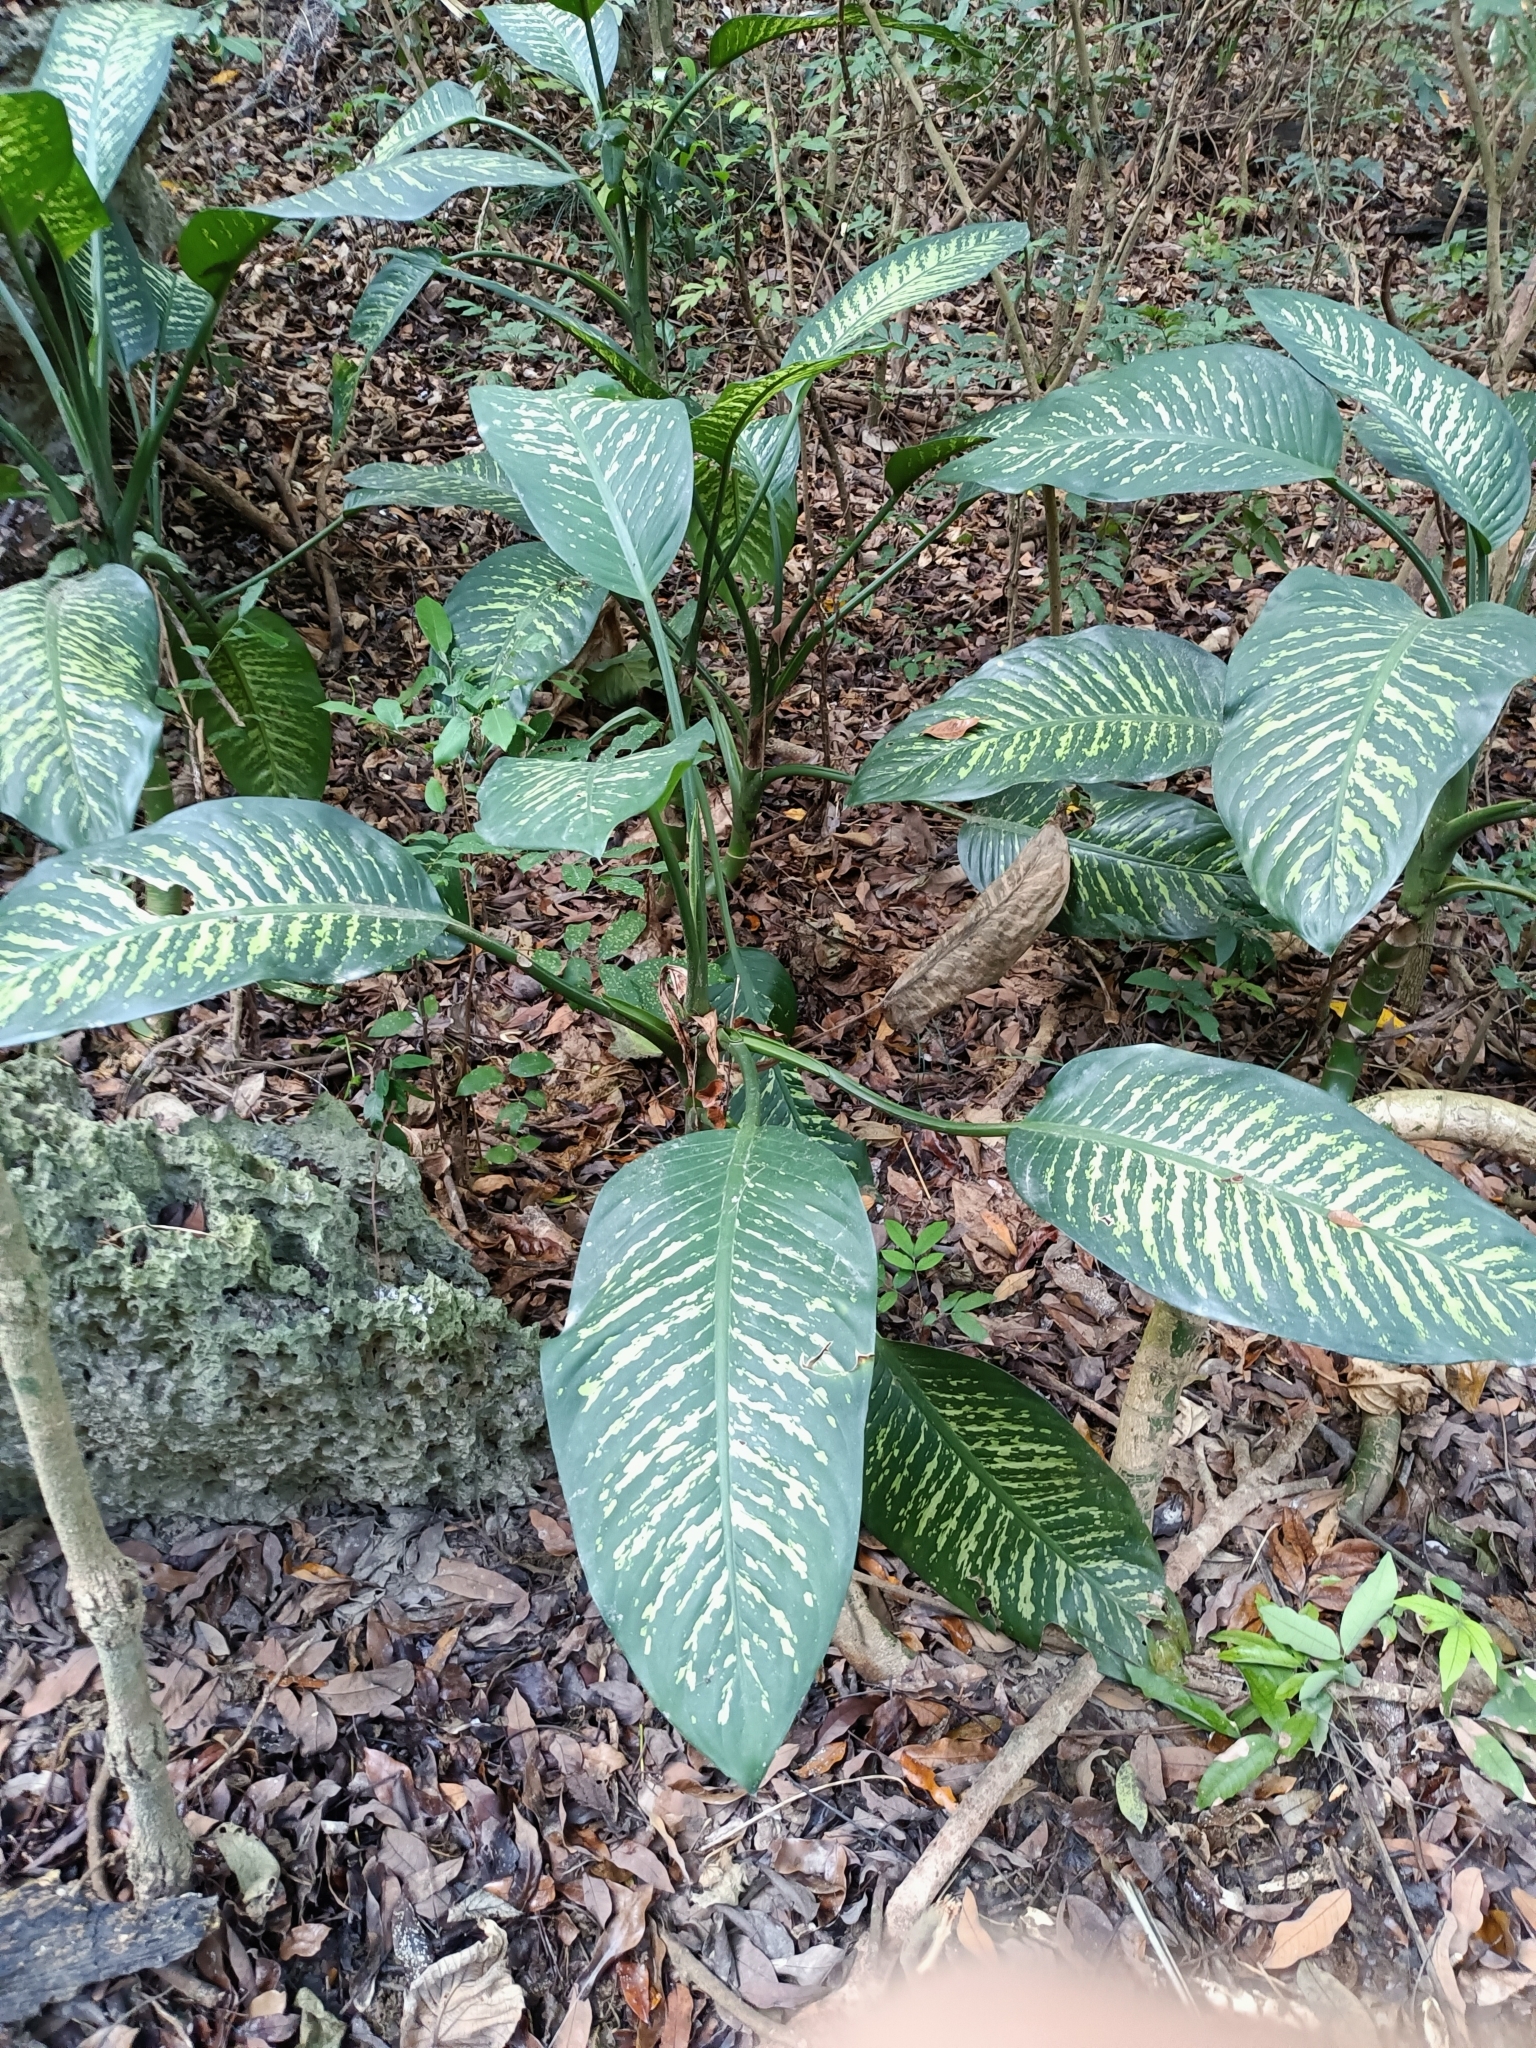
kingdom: Plantae
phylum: Tracheophyta
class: Liliopsida
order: Alismatales
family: Araceae
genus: Dieffenbachia
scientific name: Dieffenbachia seguine
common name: Dumbcane
